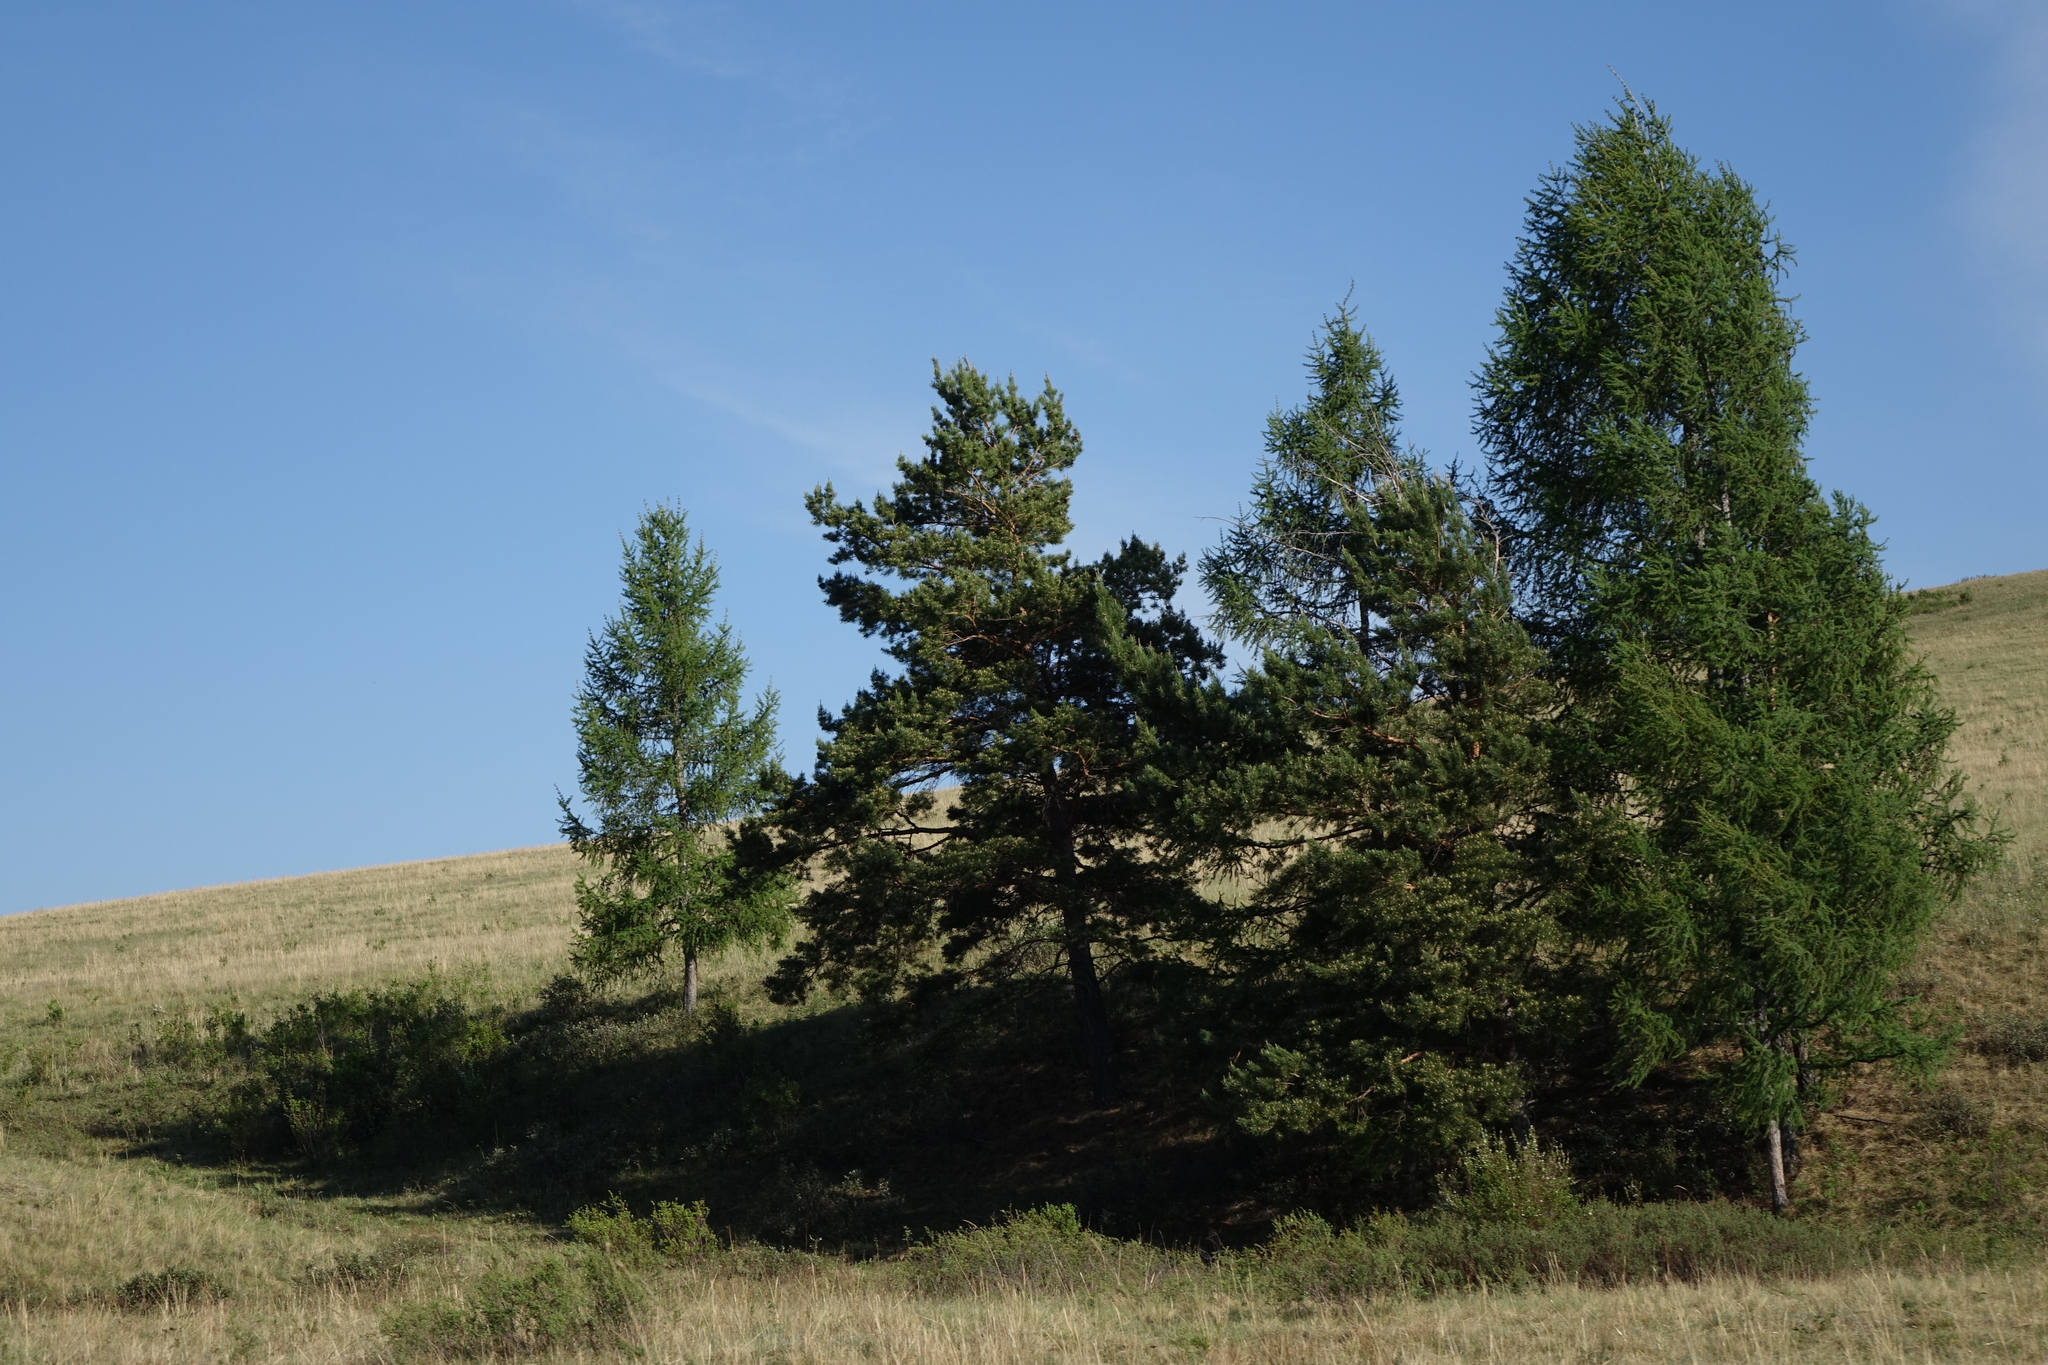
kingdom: Plantae
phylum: Tracheophyta
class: Pinopsida
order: Pinales
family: Pinaceae
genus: Larix
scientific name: Larix sibirica
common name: Siberian larch
